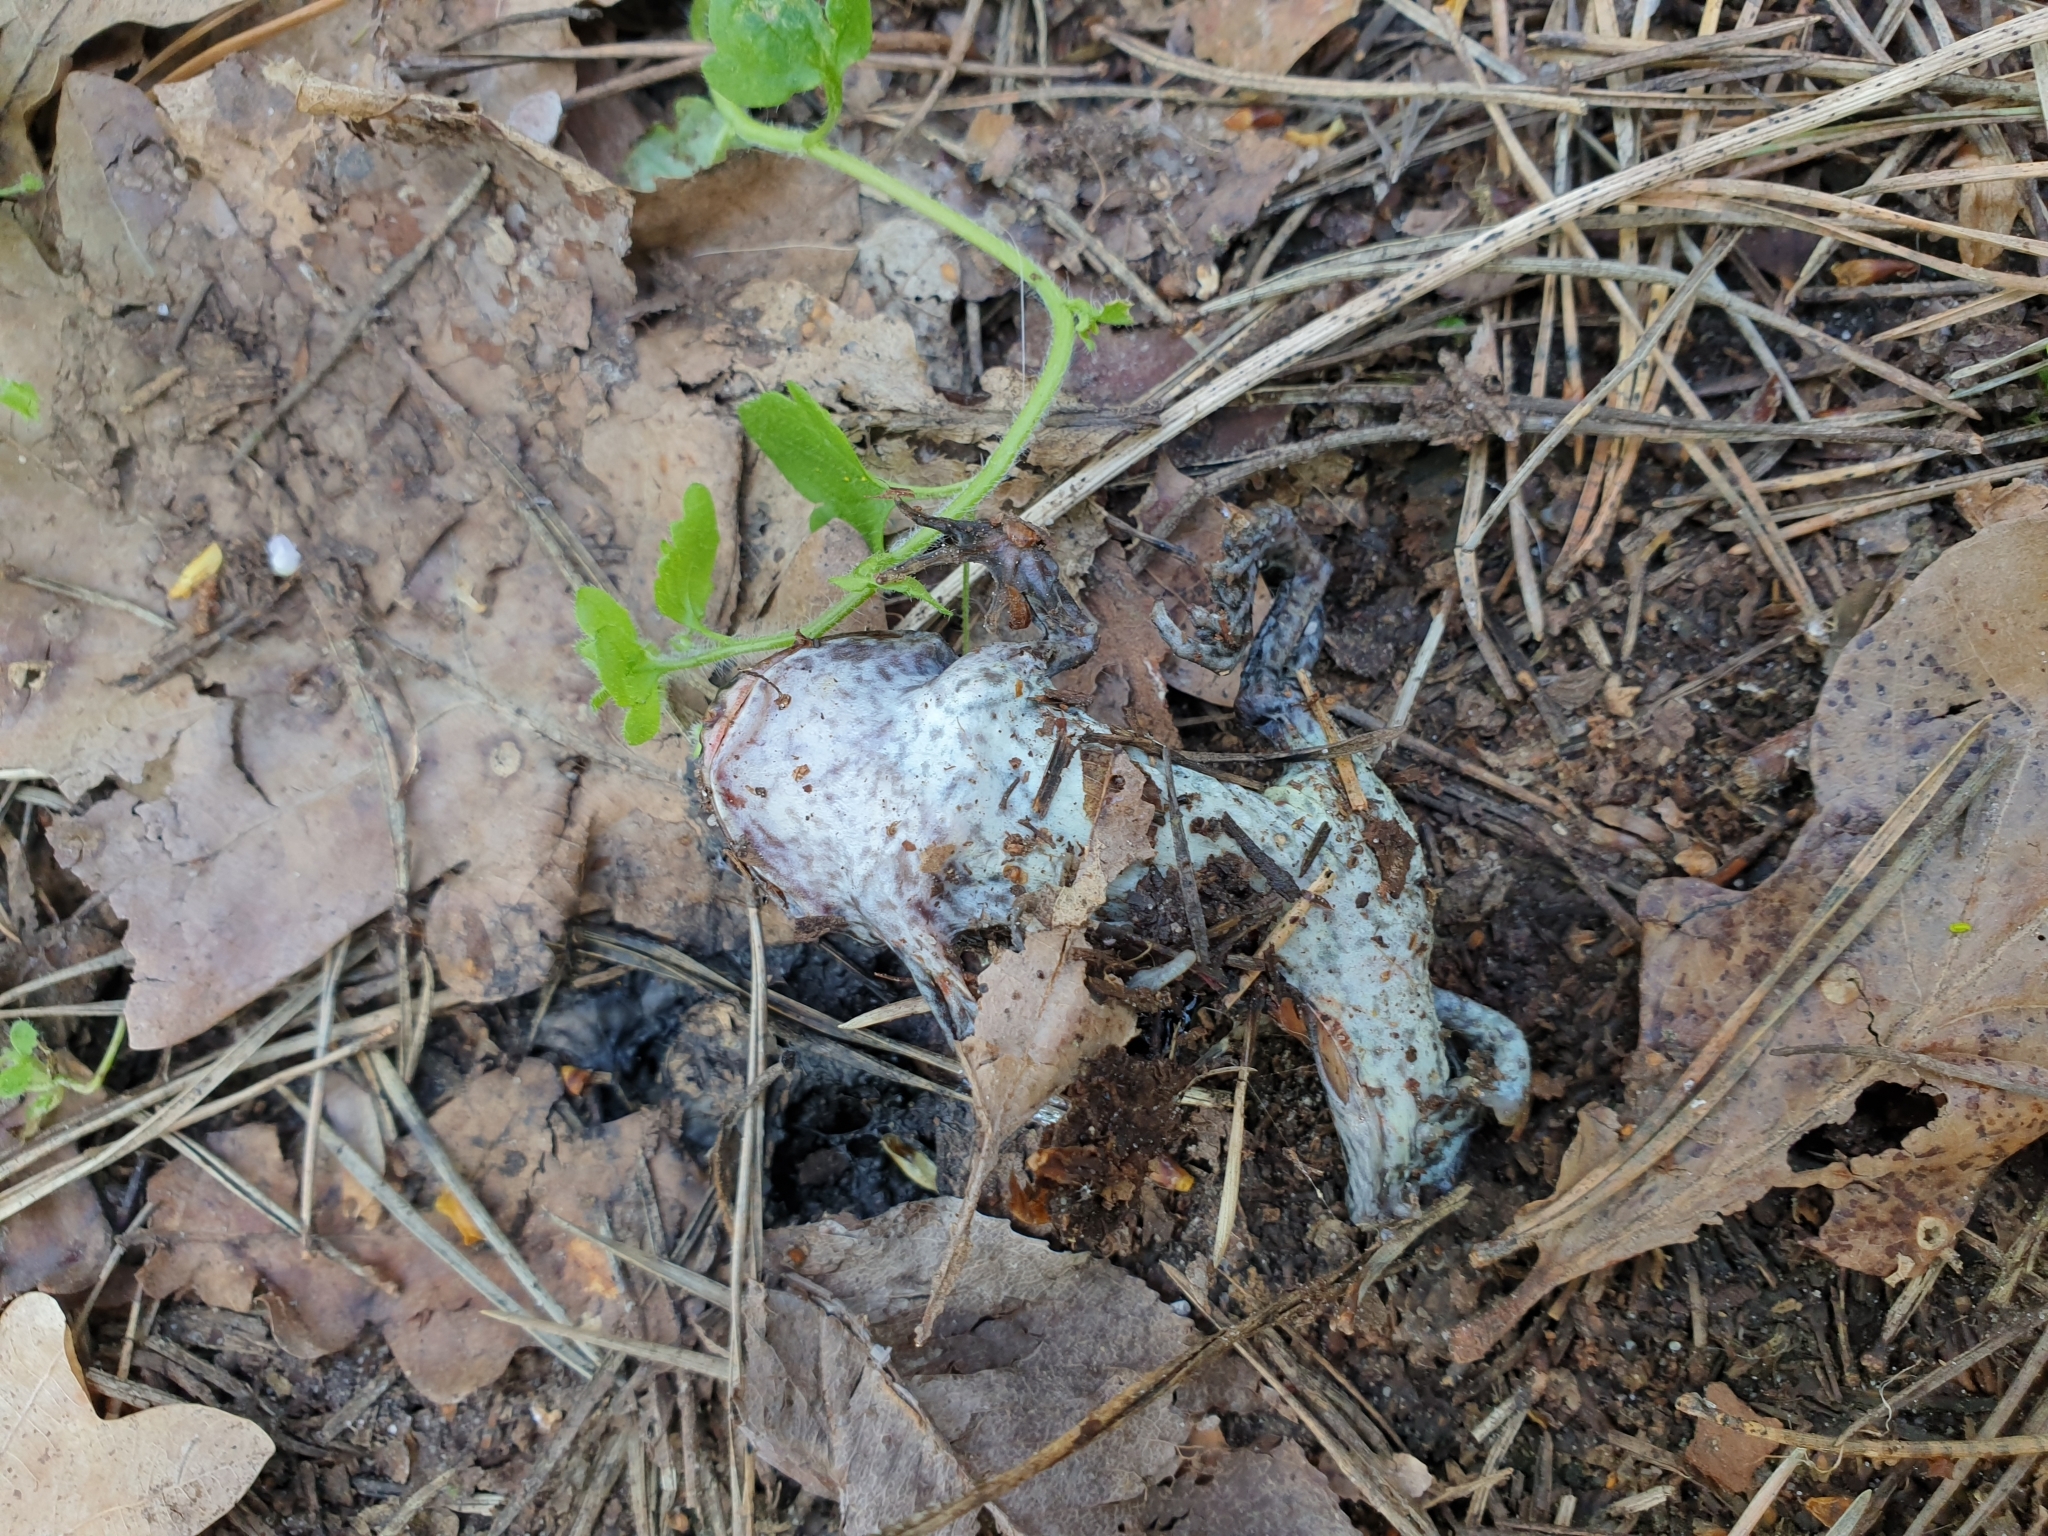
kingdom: Animalia
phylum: Chordata
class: Amphibia
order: Anura
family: Pelobatidae
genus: Pelobates
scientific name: Pelobates fuscus
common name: Common eurasian spadefoot toad
